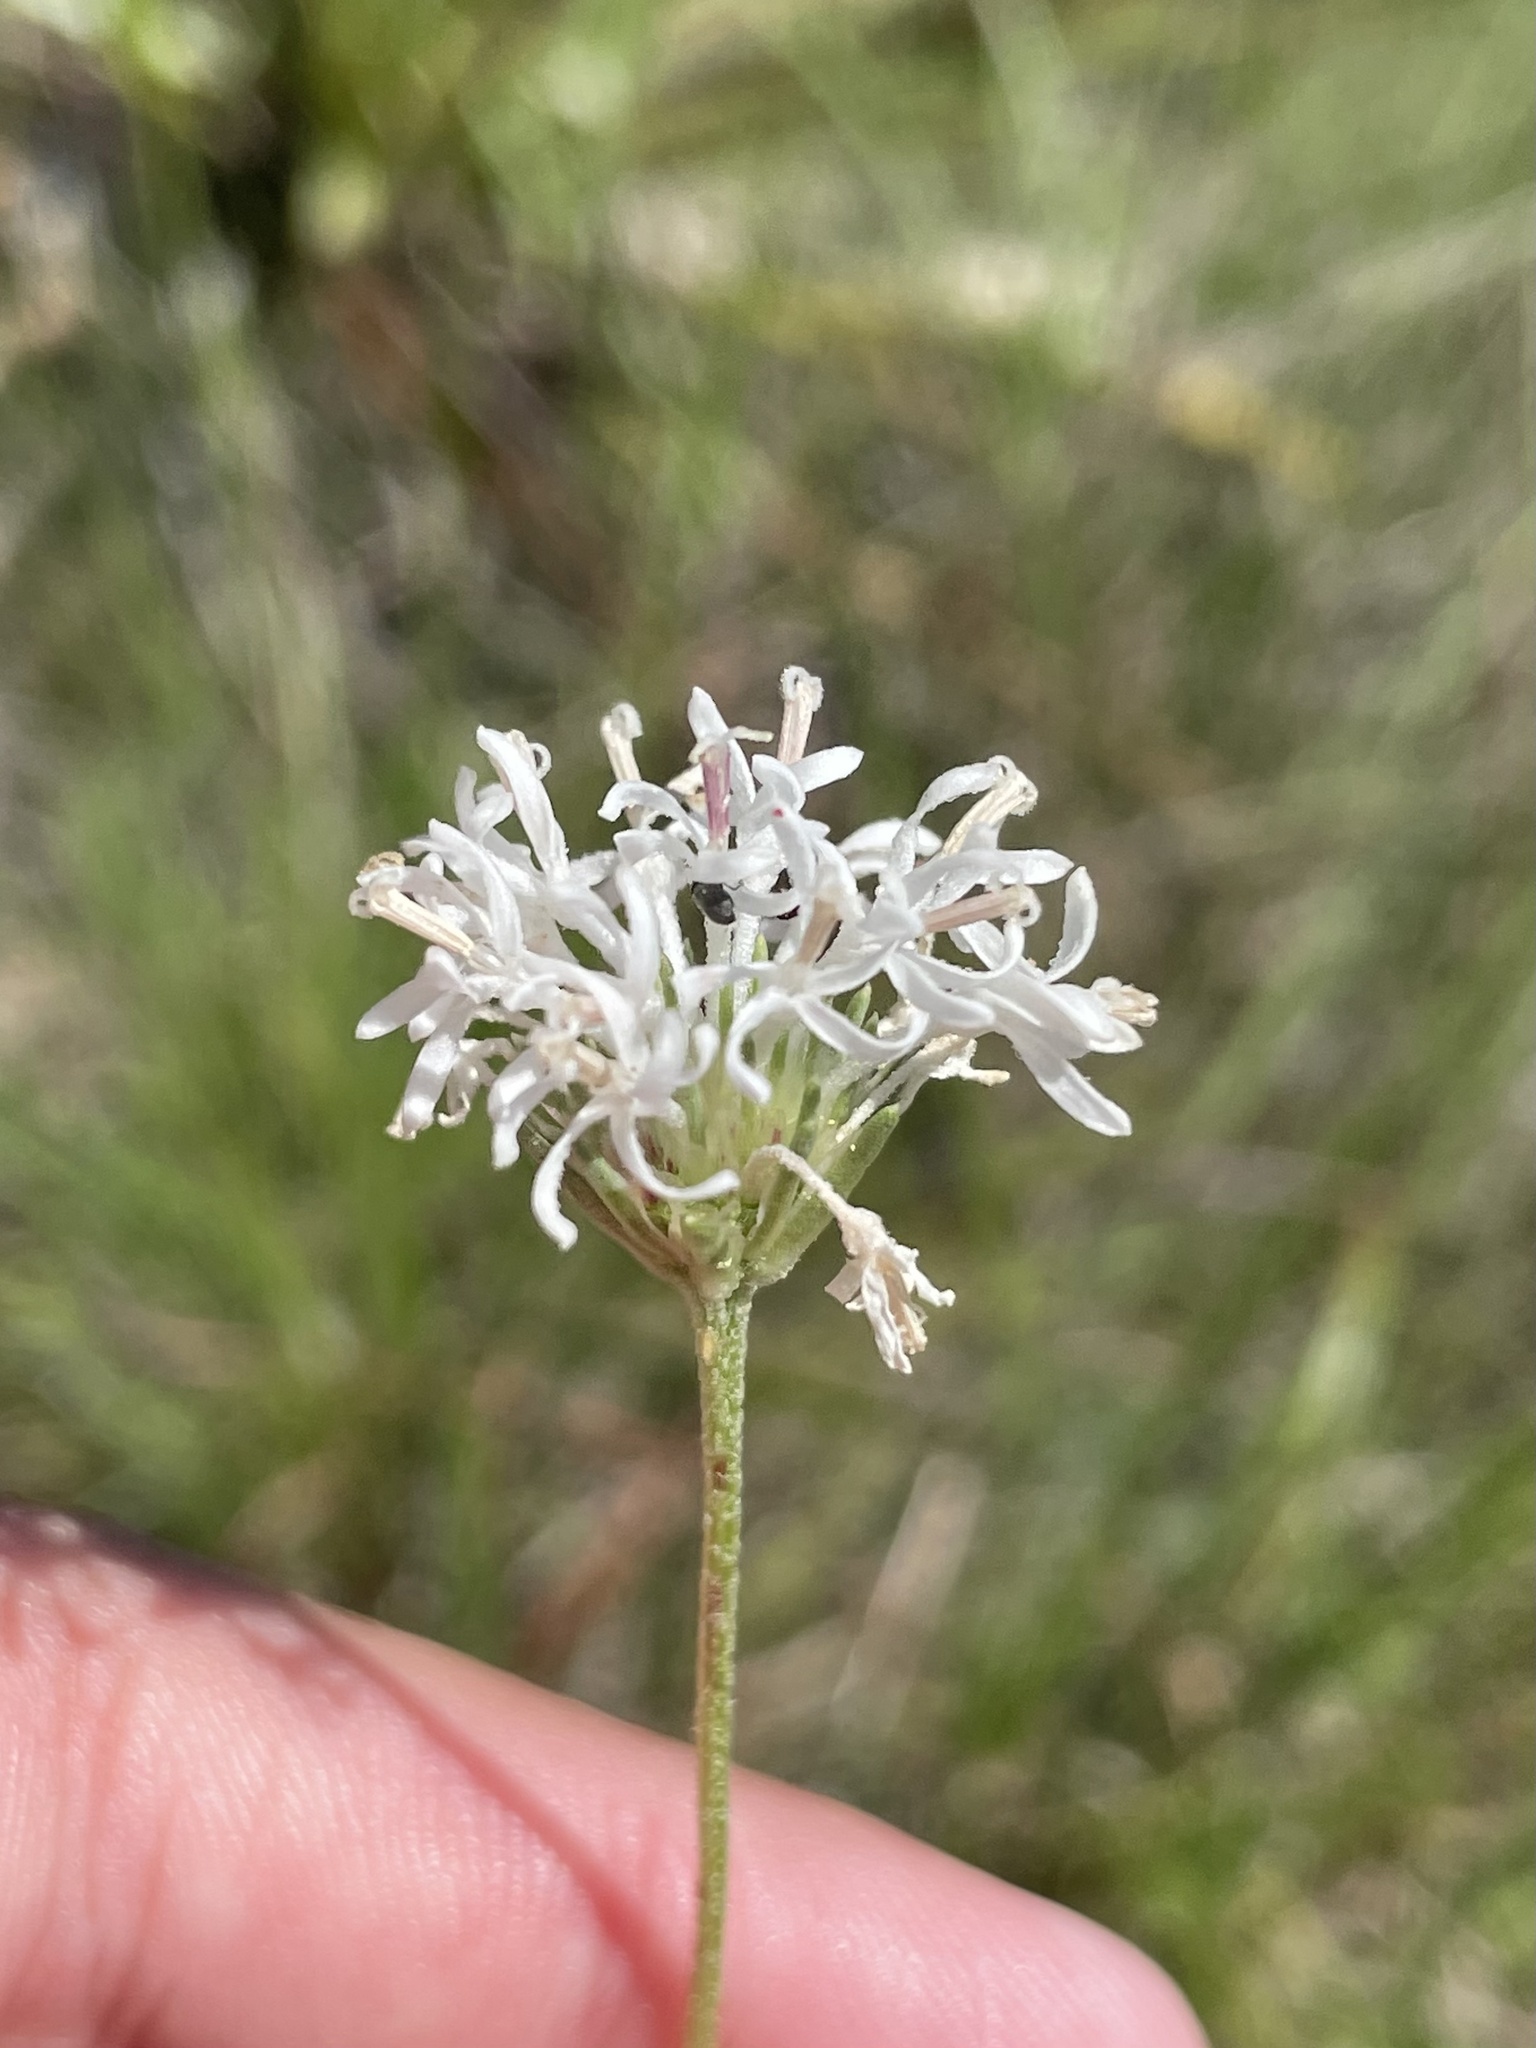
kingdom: Plantae
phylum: Tracheophyta
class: Magnoliopsida
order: Asterales
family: Asteraceae
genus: Marshallia
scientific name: Marshallia caespitosa
